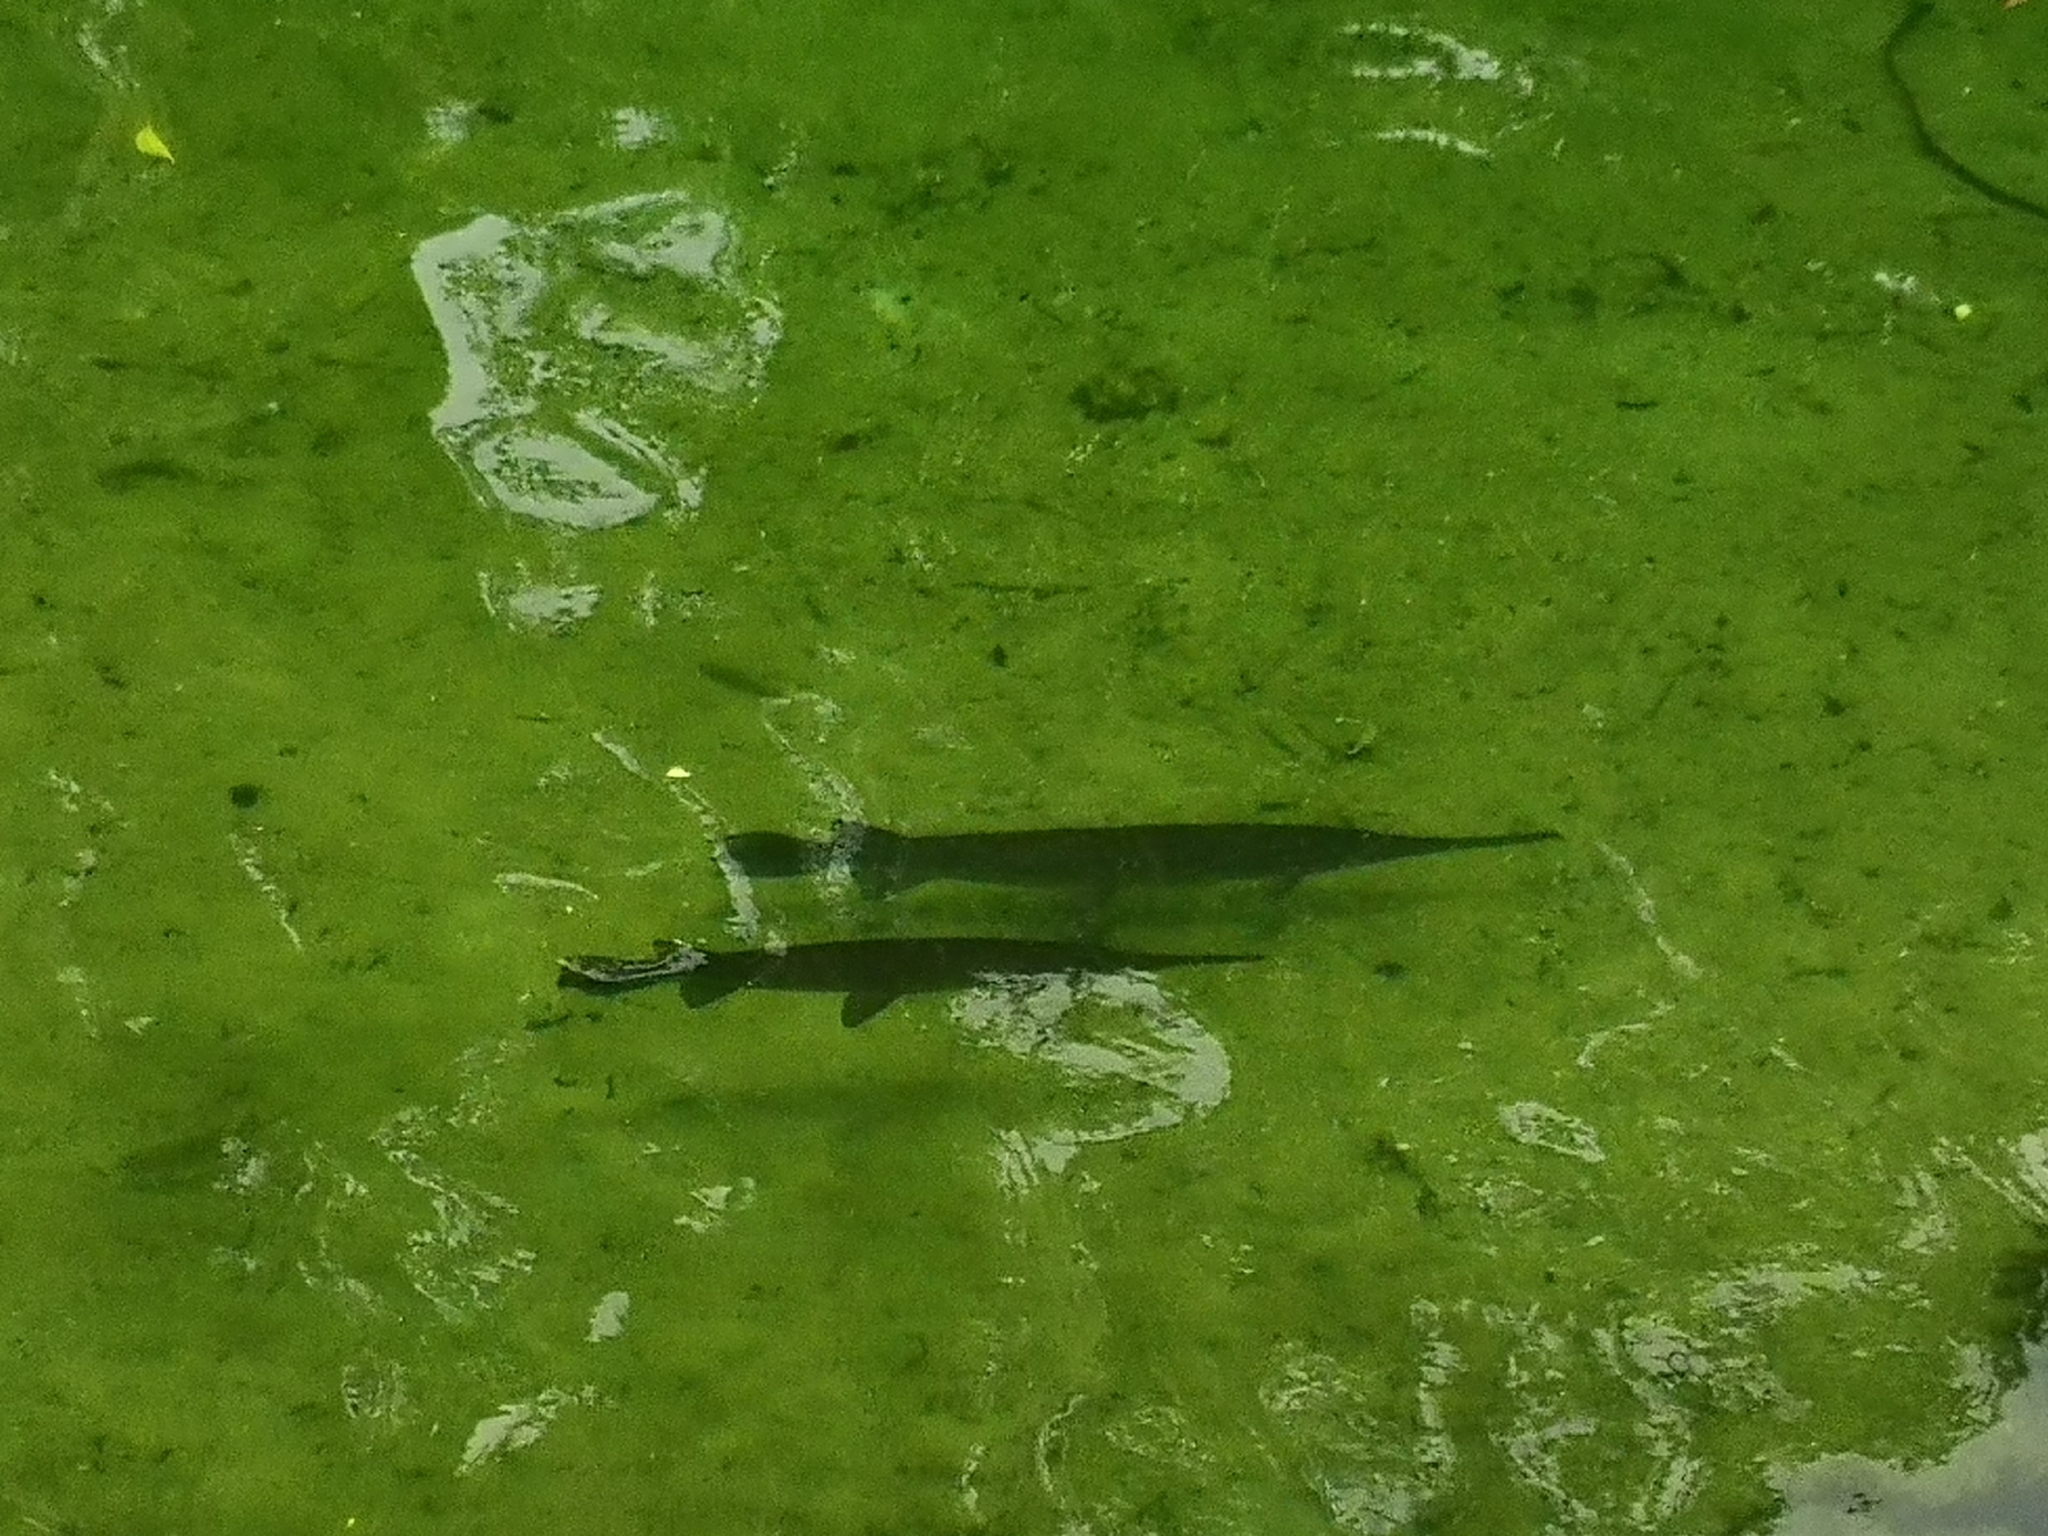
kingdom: Animalia
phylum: Chordata
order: Lepisosteiformes
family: Lepisosteidae
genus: Lepisosteus
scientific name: Lepisosteus osseus
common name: Longnose gar
